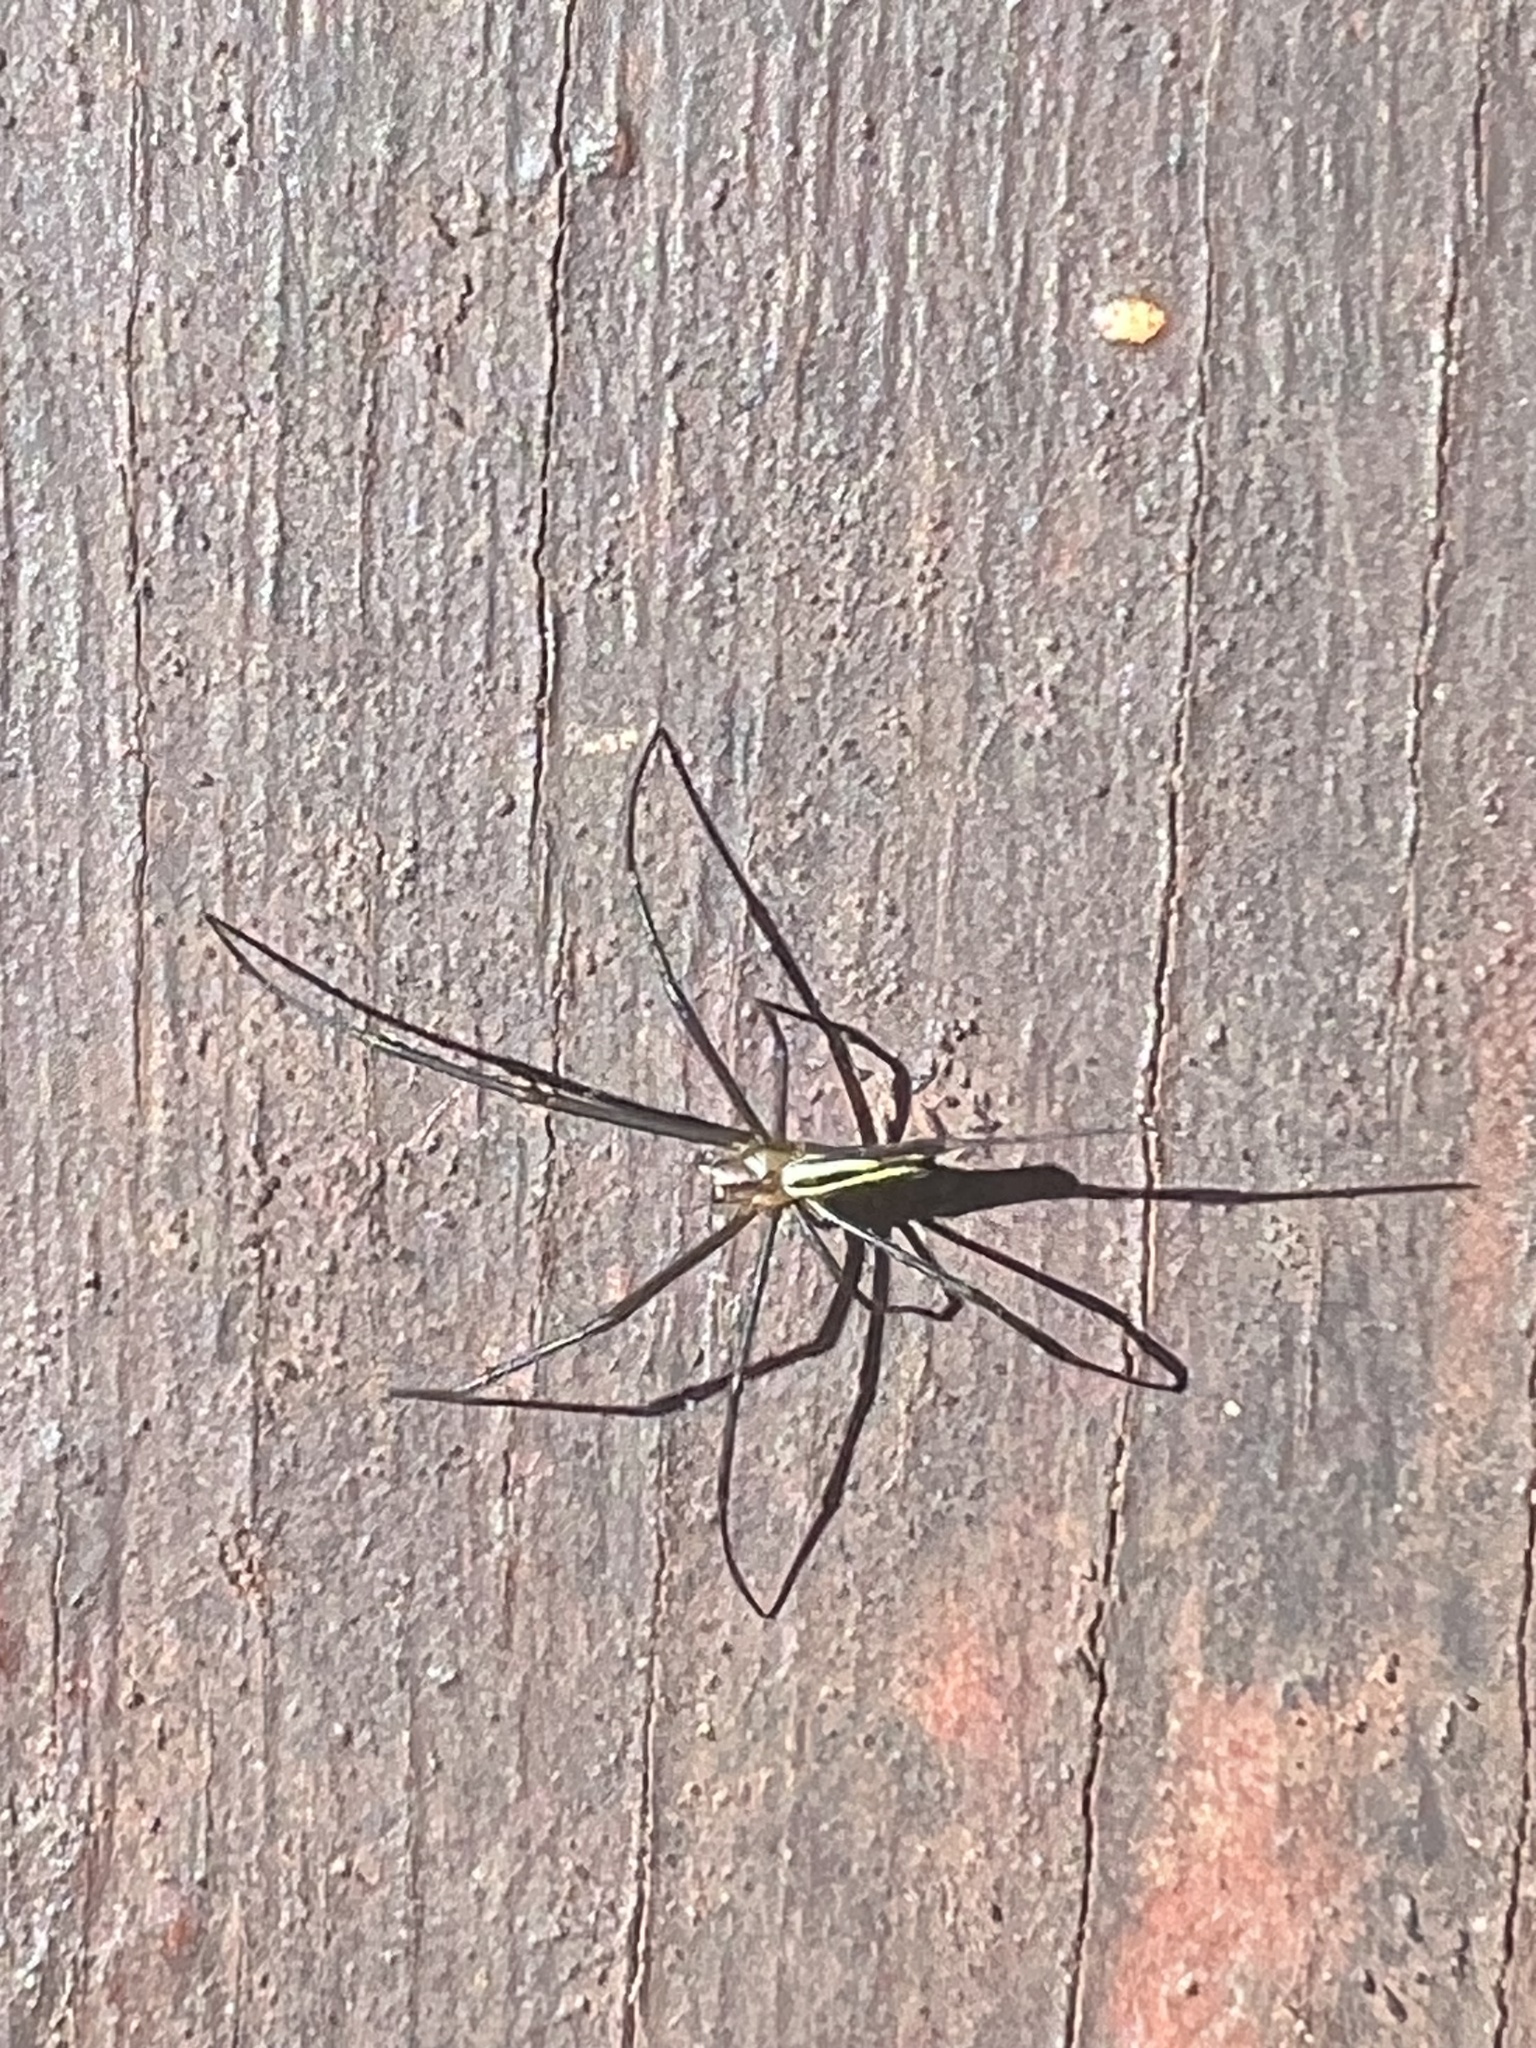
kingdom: Animalia
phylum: Arthropoda
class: Arachnida
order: Araneae
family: Araneidae
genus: Nephila
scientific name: Nephila pilipes
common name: Giant golden orb weaver
